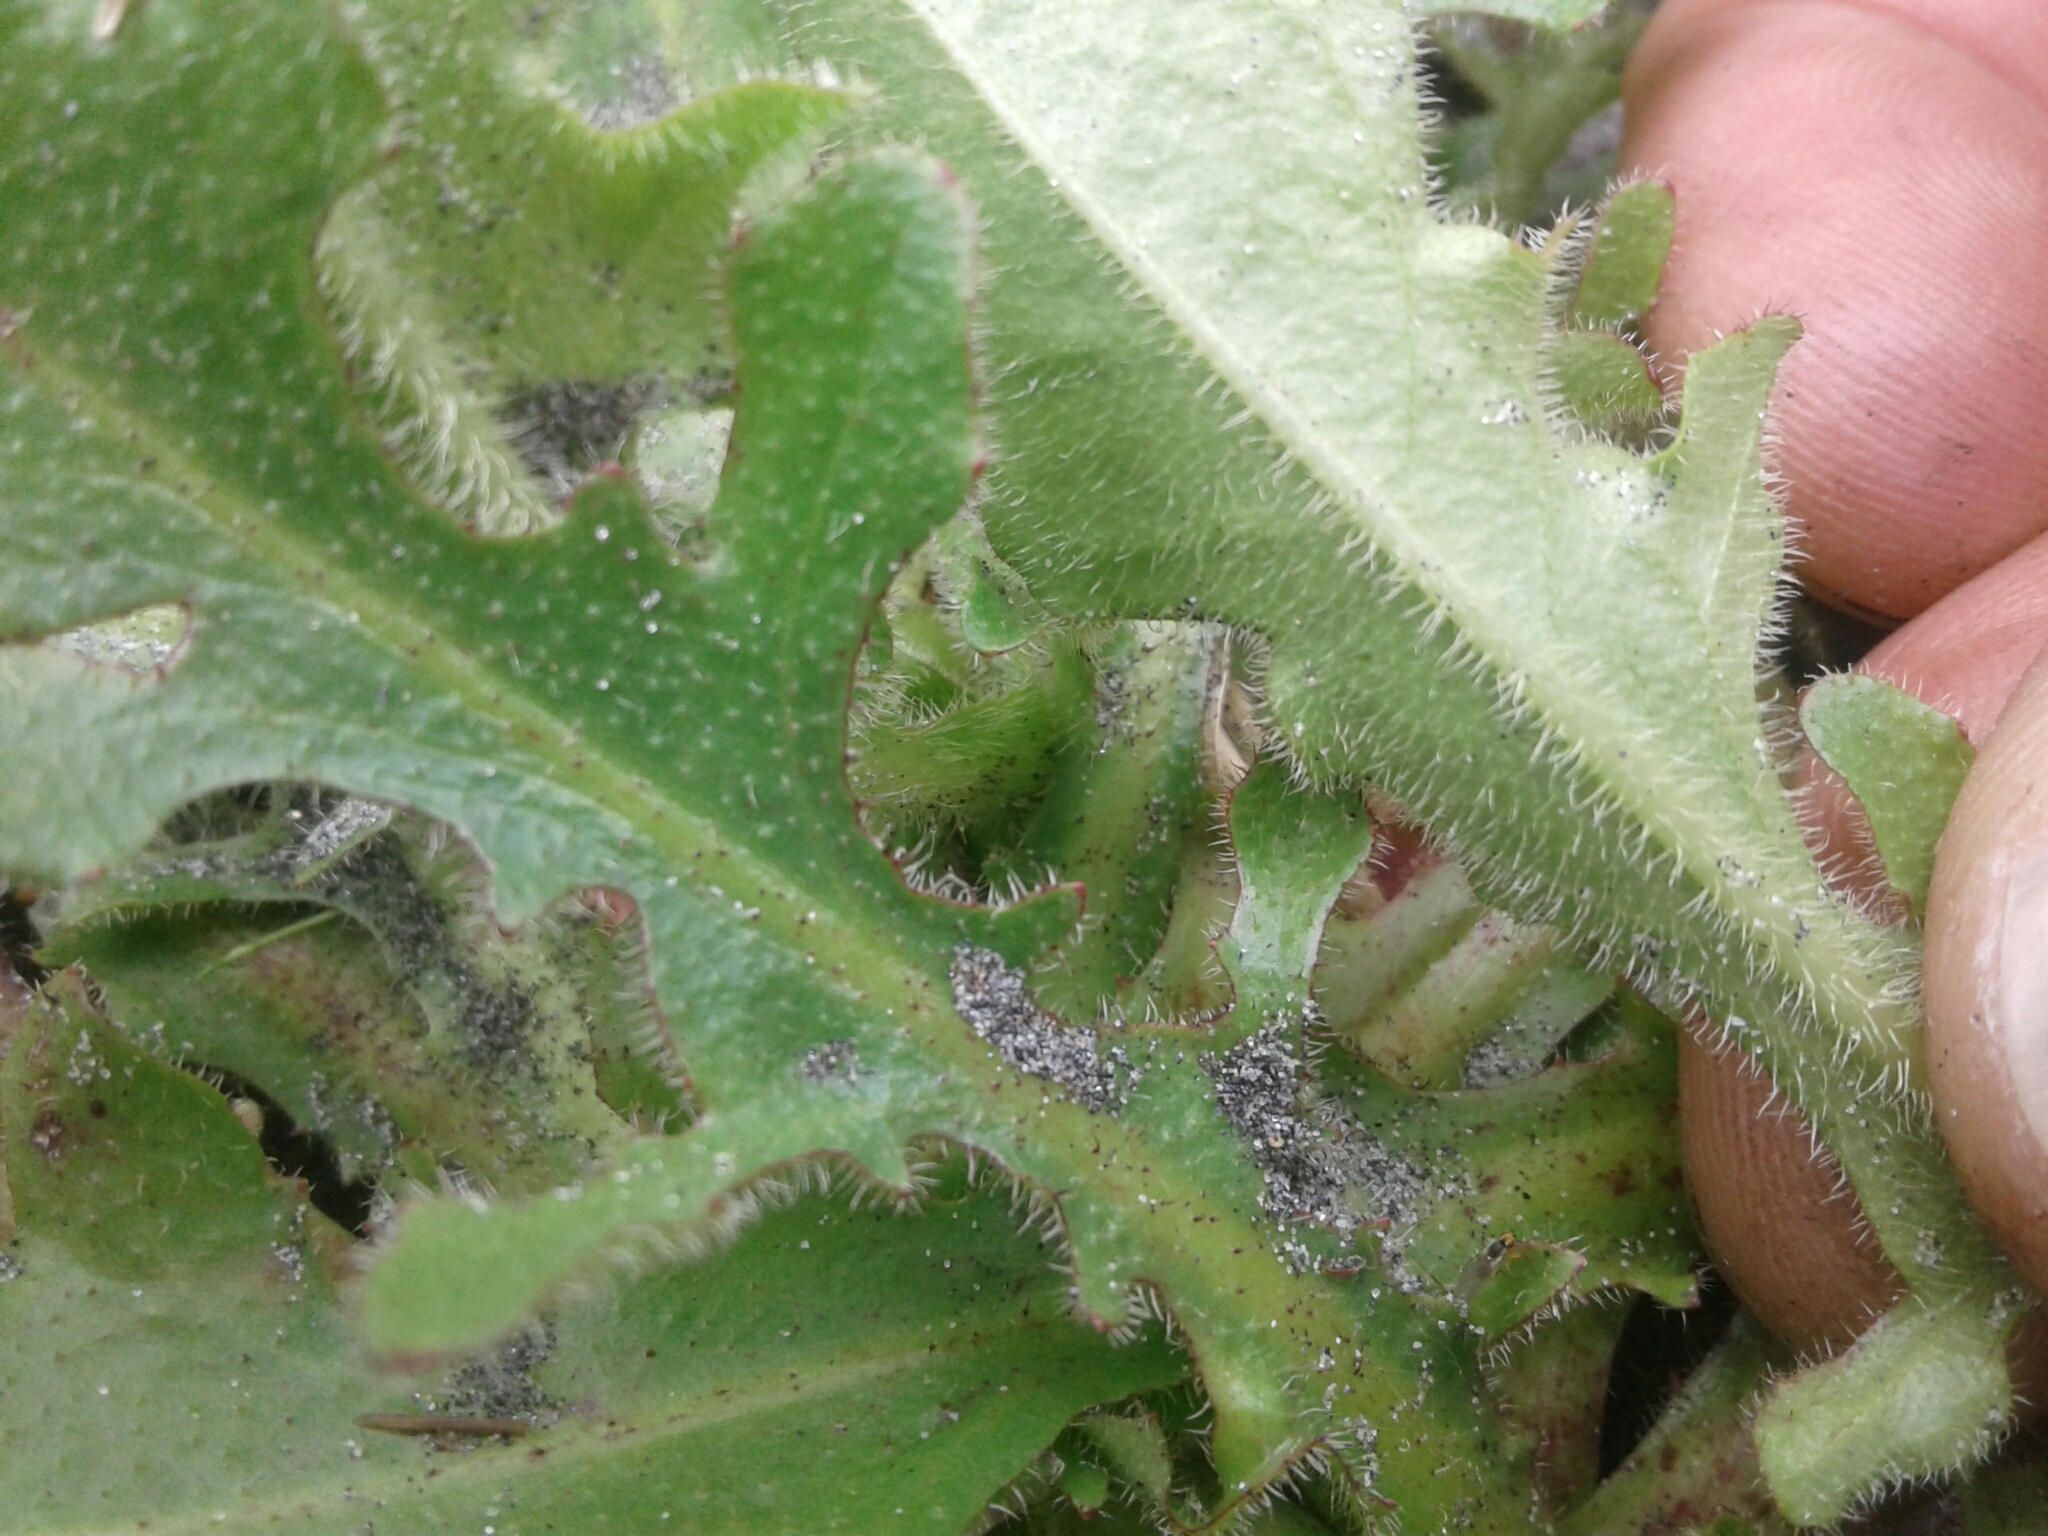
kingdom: Plantae
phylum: Tracheophyta
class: Magnoliopsida
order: Asterales
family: Asteraceae
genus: Hypochaeris
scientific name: Hypochaeris radicata
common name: Flatweed
